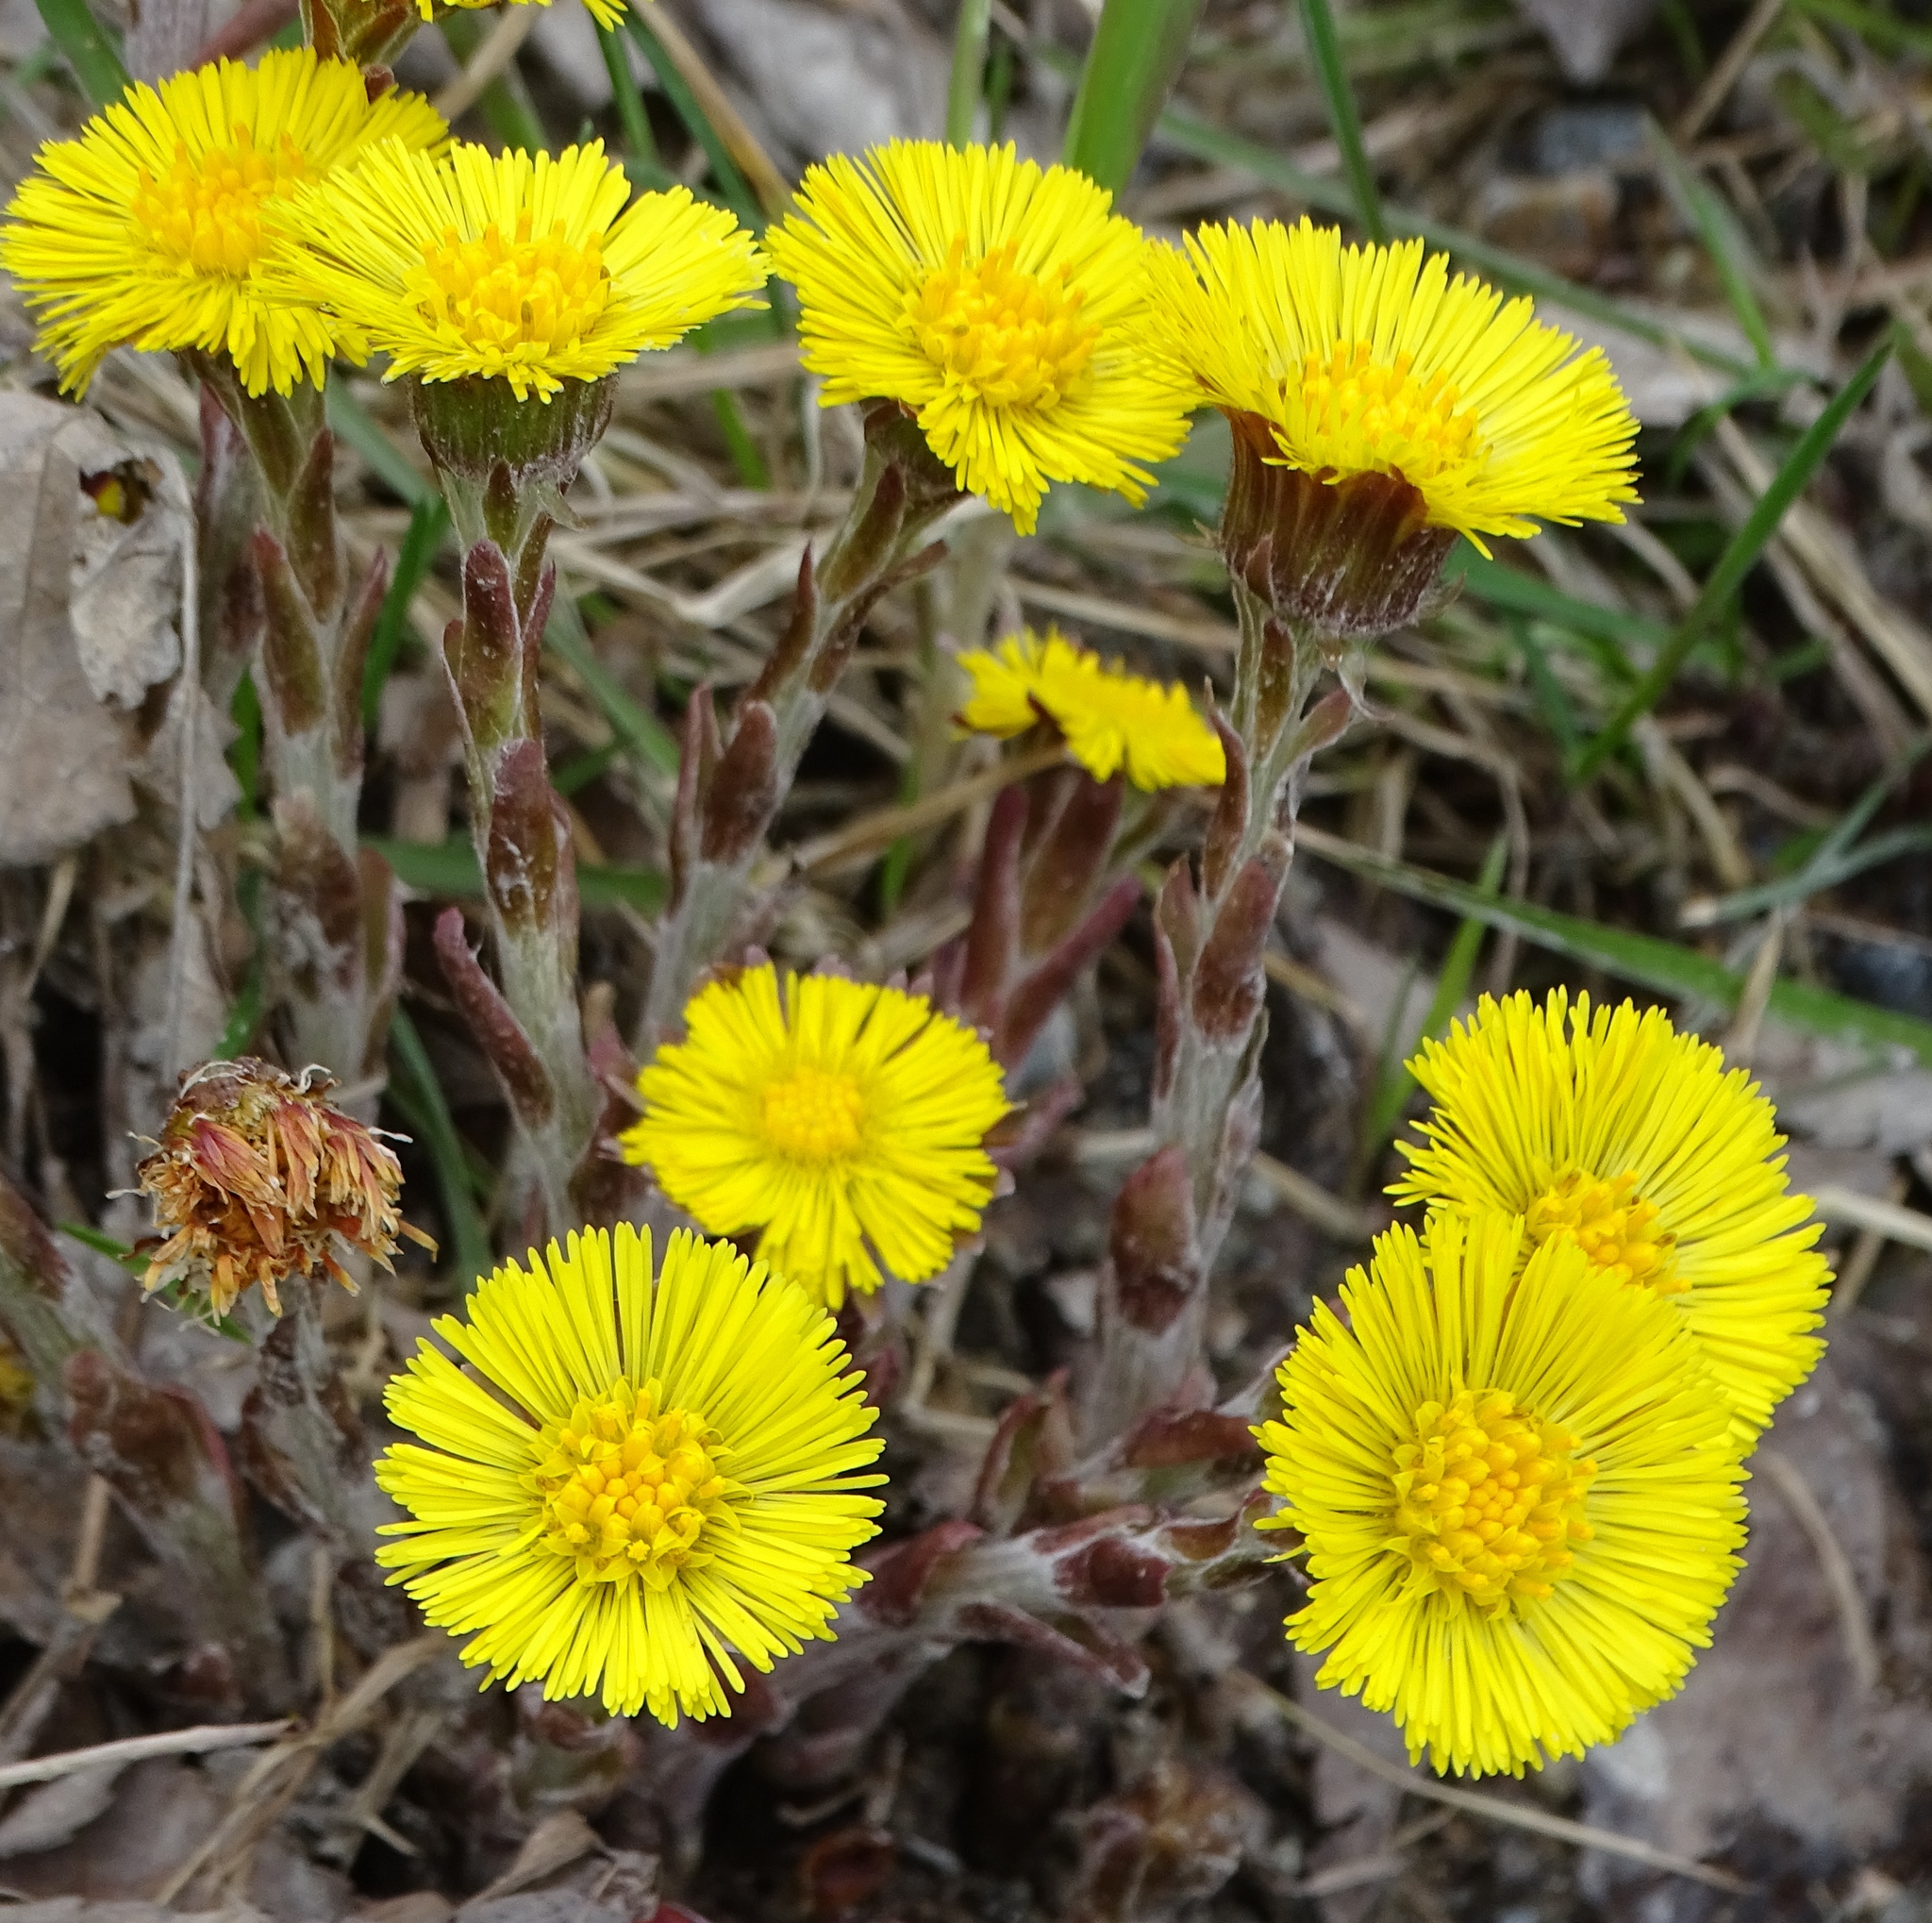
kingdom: Plantae
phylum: Tracheophyta
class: Magnoliopsida
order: Asterales
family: Asteraceae
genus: Tussilago
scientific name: Tussilago farfara
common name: Coltsfoot
